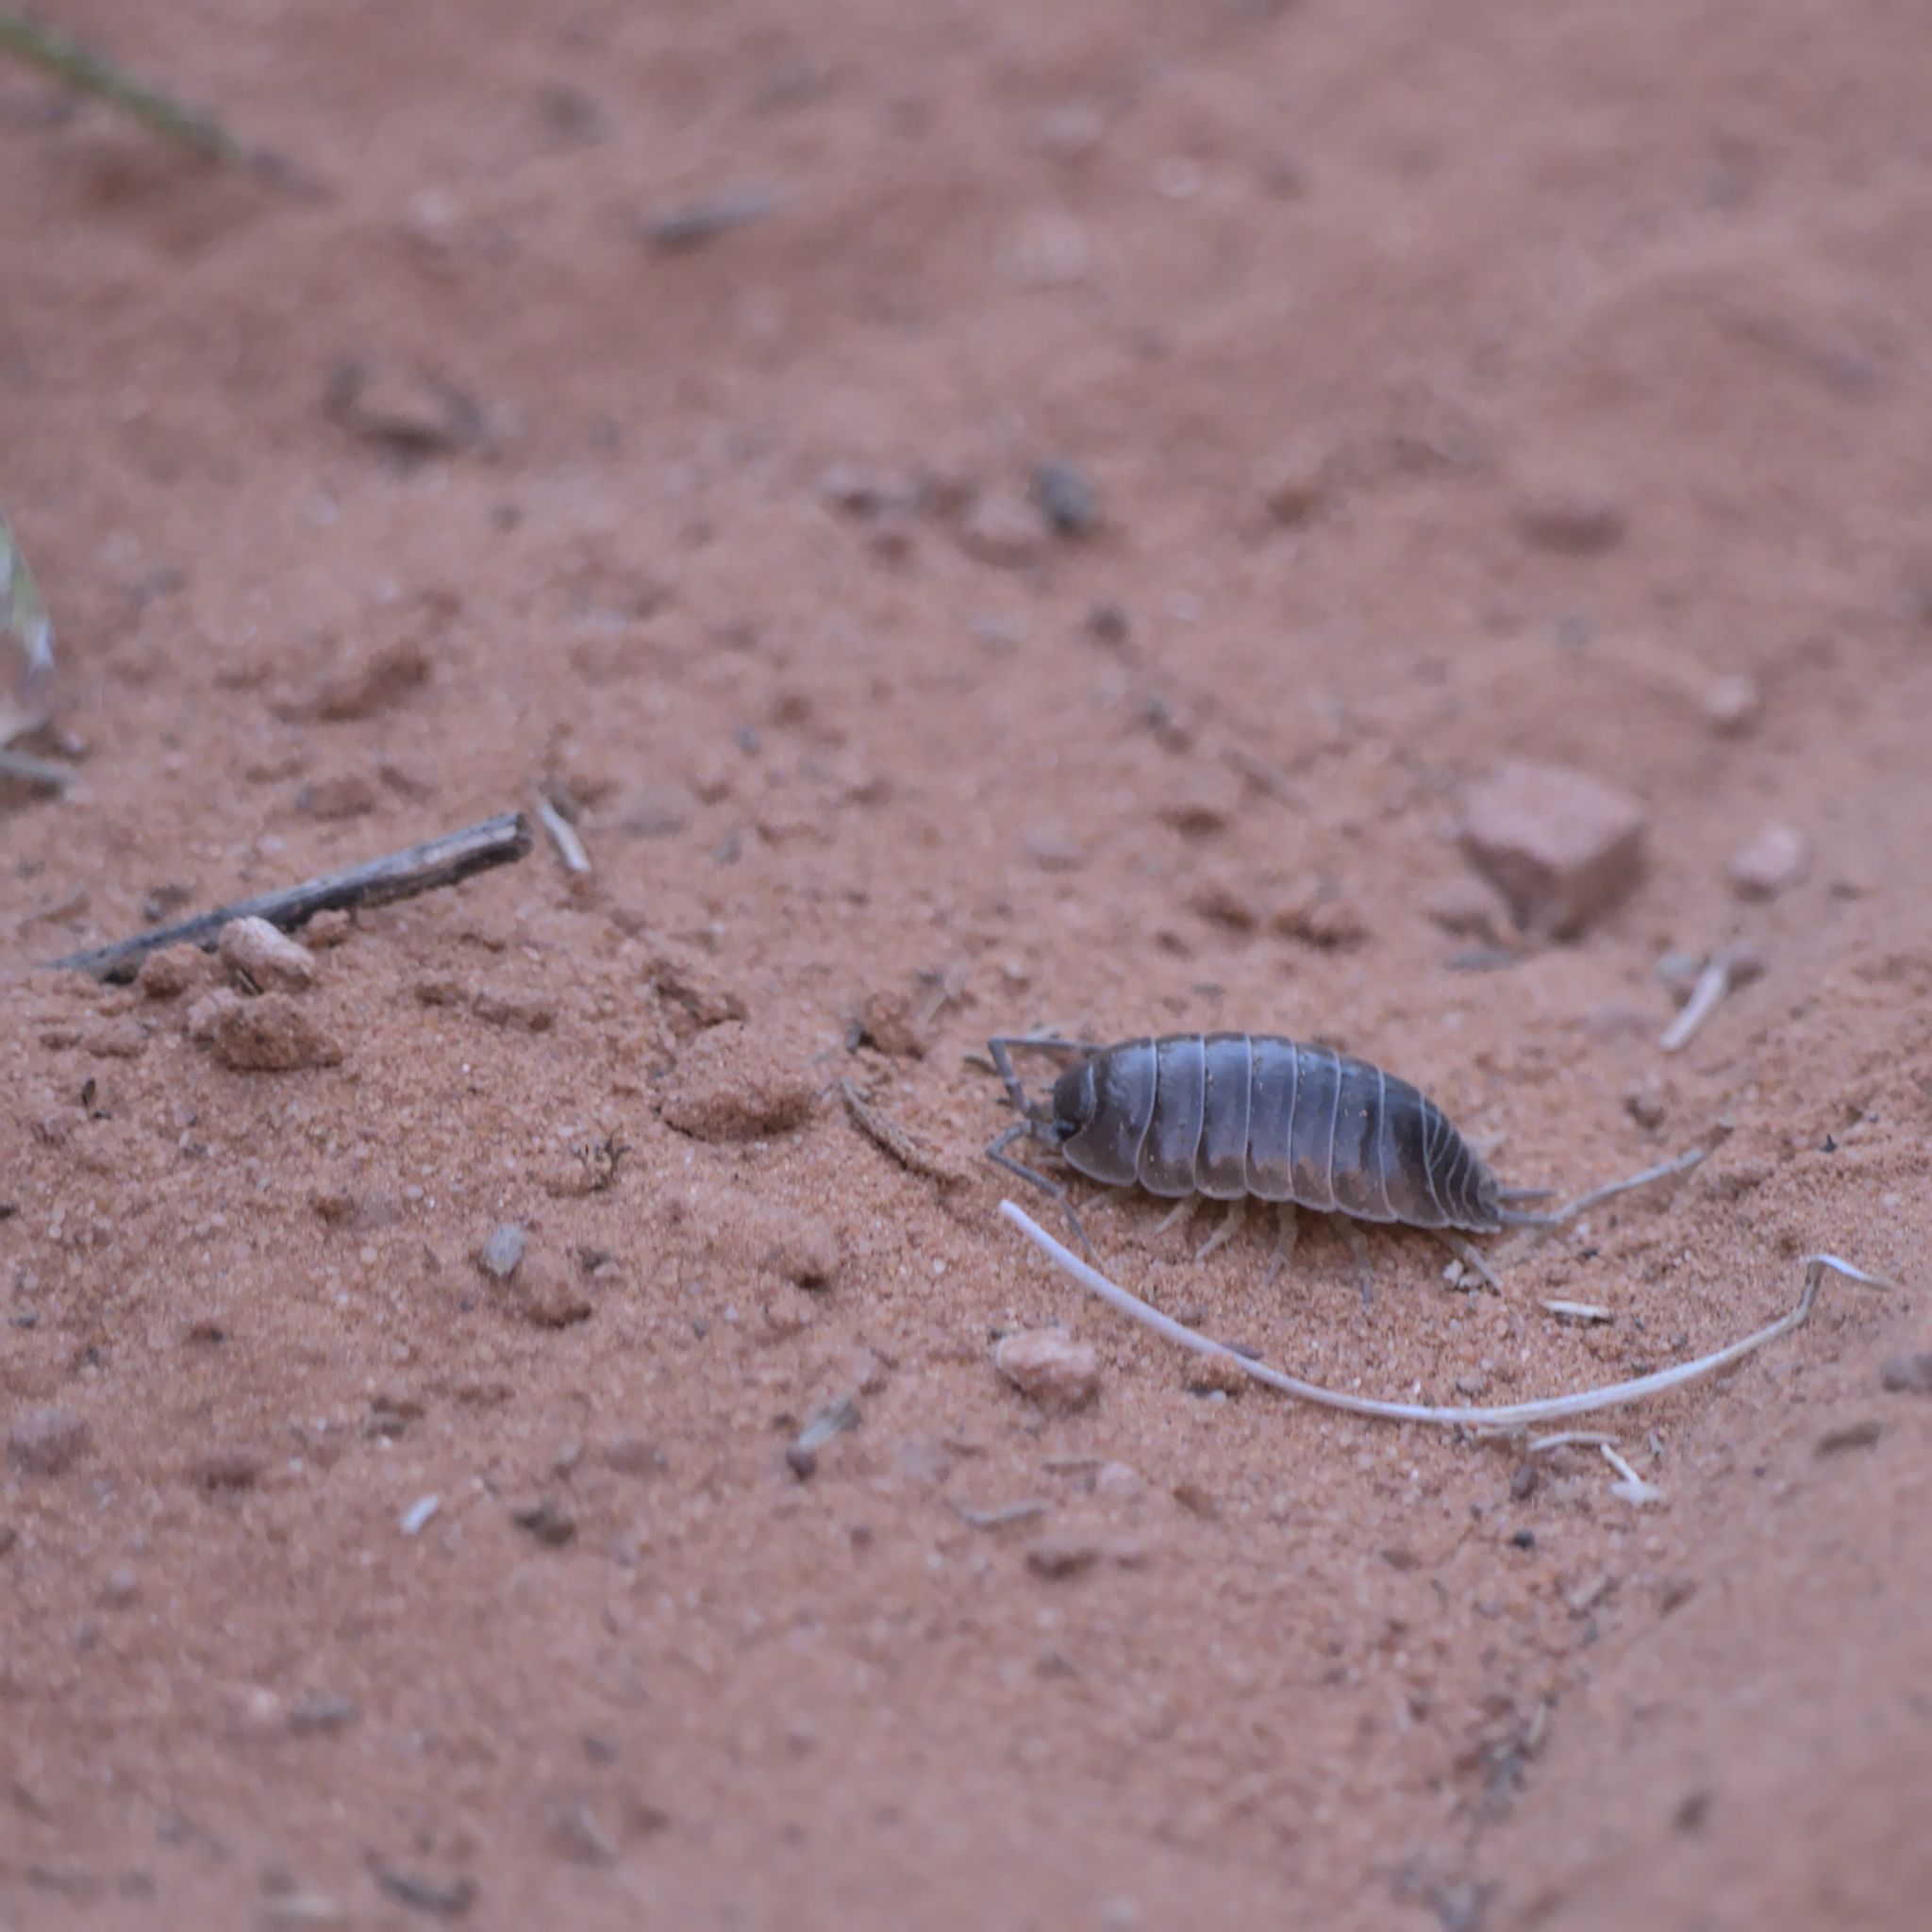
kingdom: Animalia
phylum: Arthropoda
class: Malacostraca
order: Isopoda
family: Porcellionidae
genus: Porcellio
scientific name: Porcellio laevis
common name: Swift woodlouse
